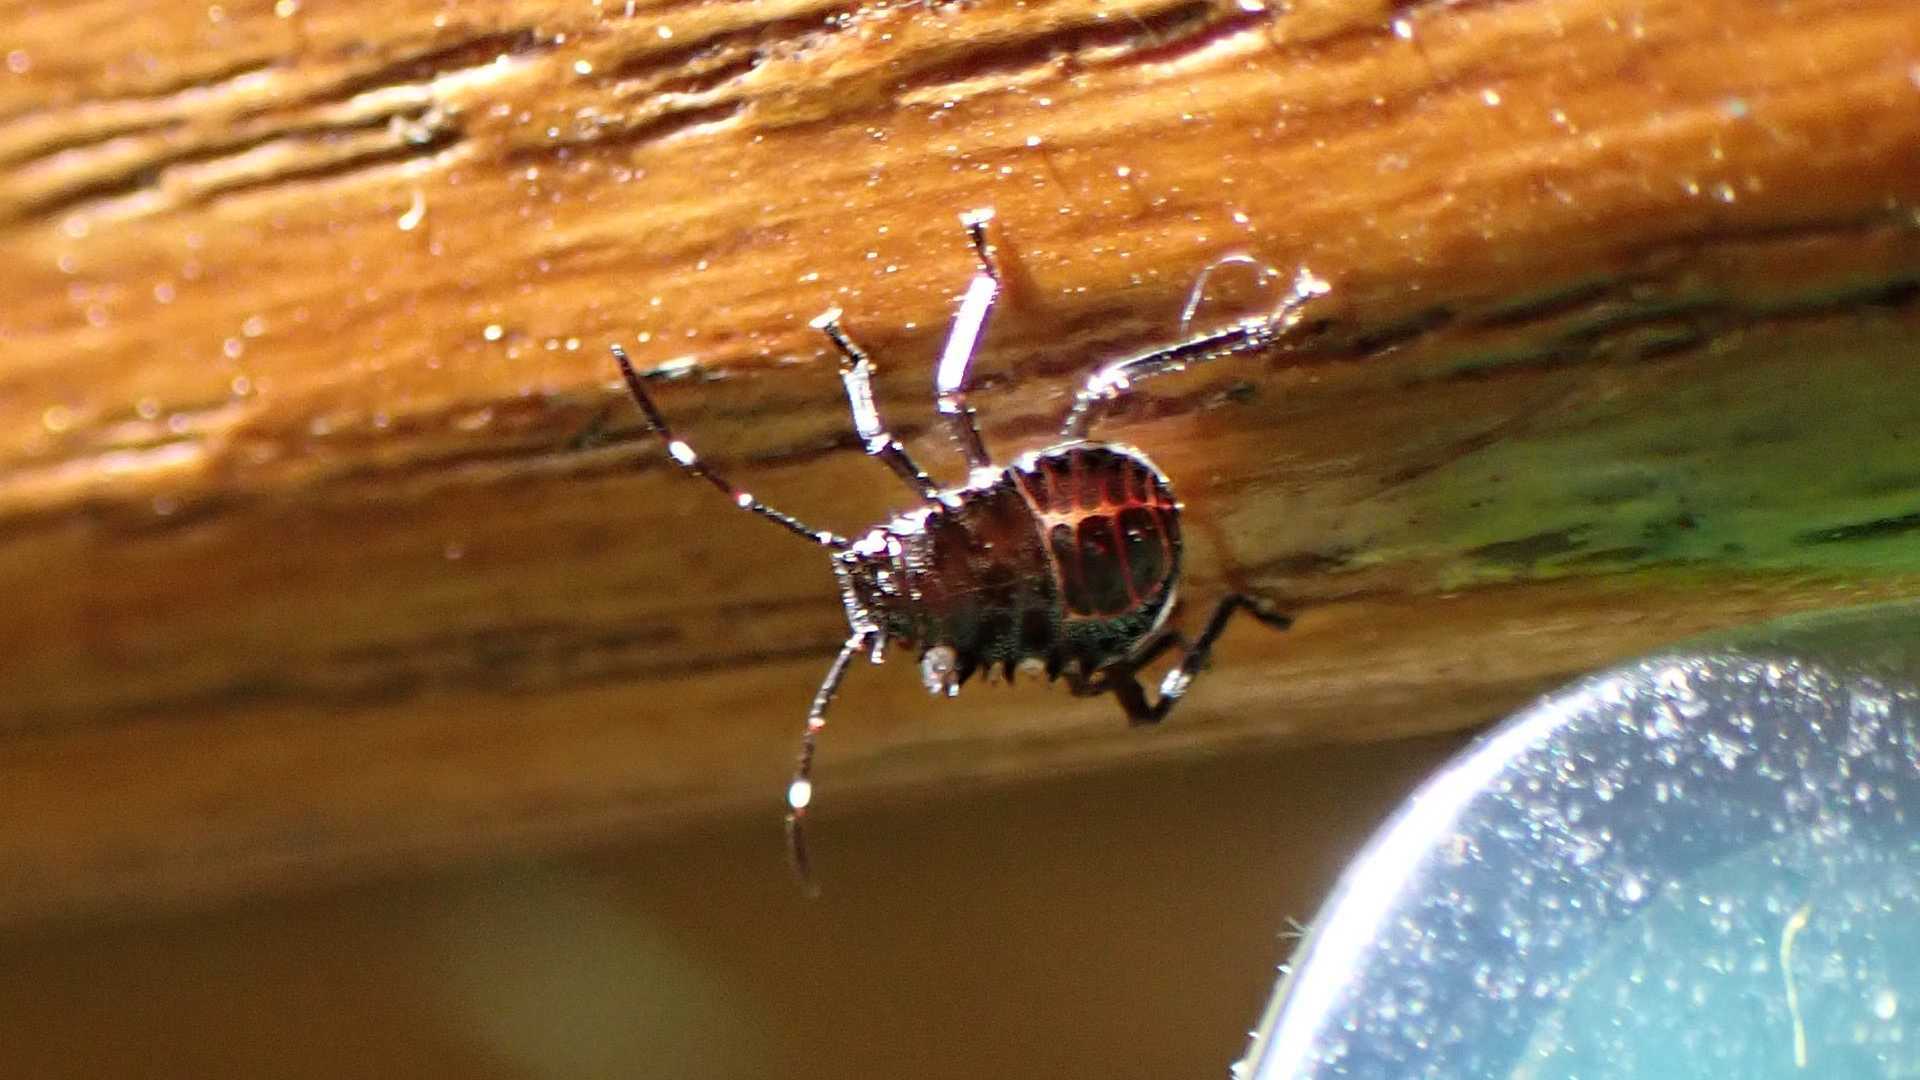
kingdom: Animalia
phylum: Arthropoda
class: Insecta
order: Hemiptera
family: Pentatomidae
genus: Halyomorpha
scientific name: Halyomorpha halys
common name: Brown marmorated stink bug
